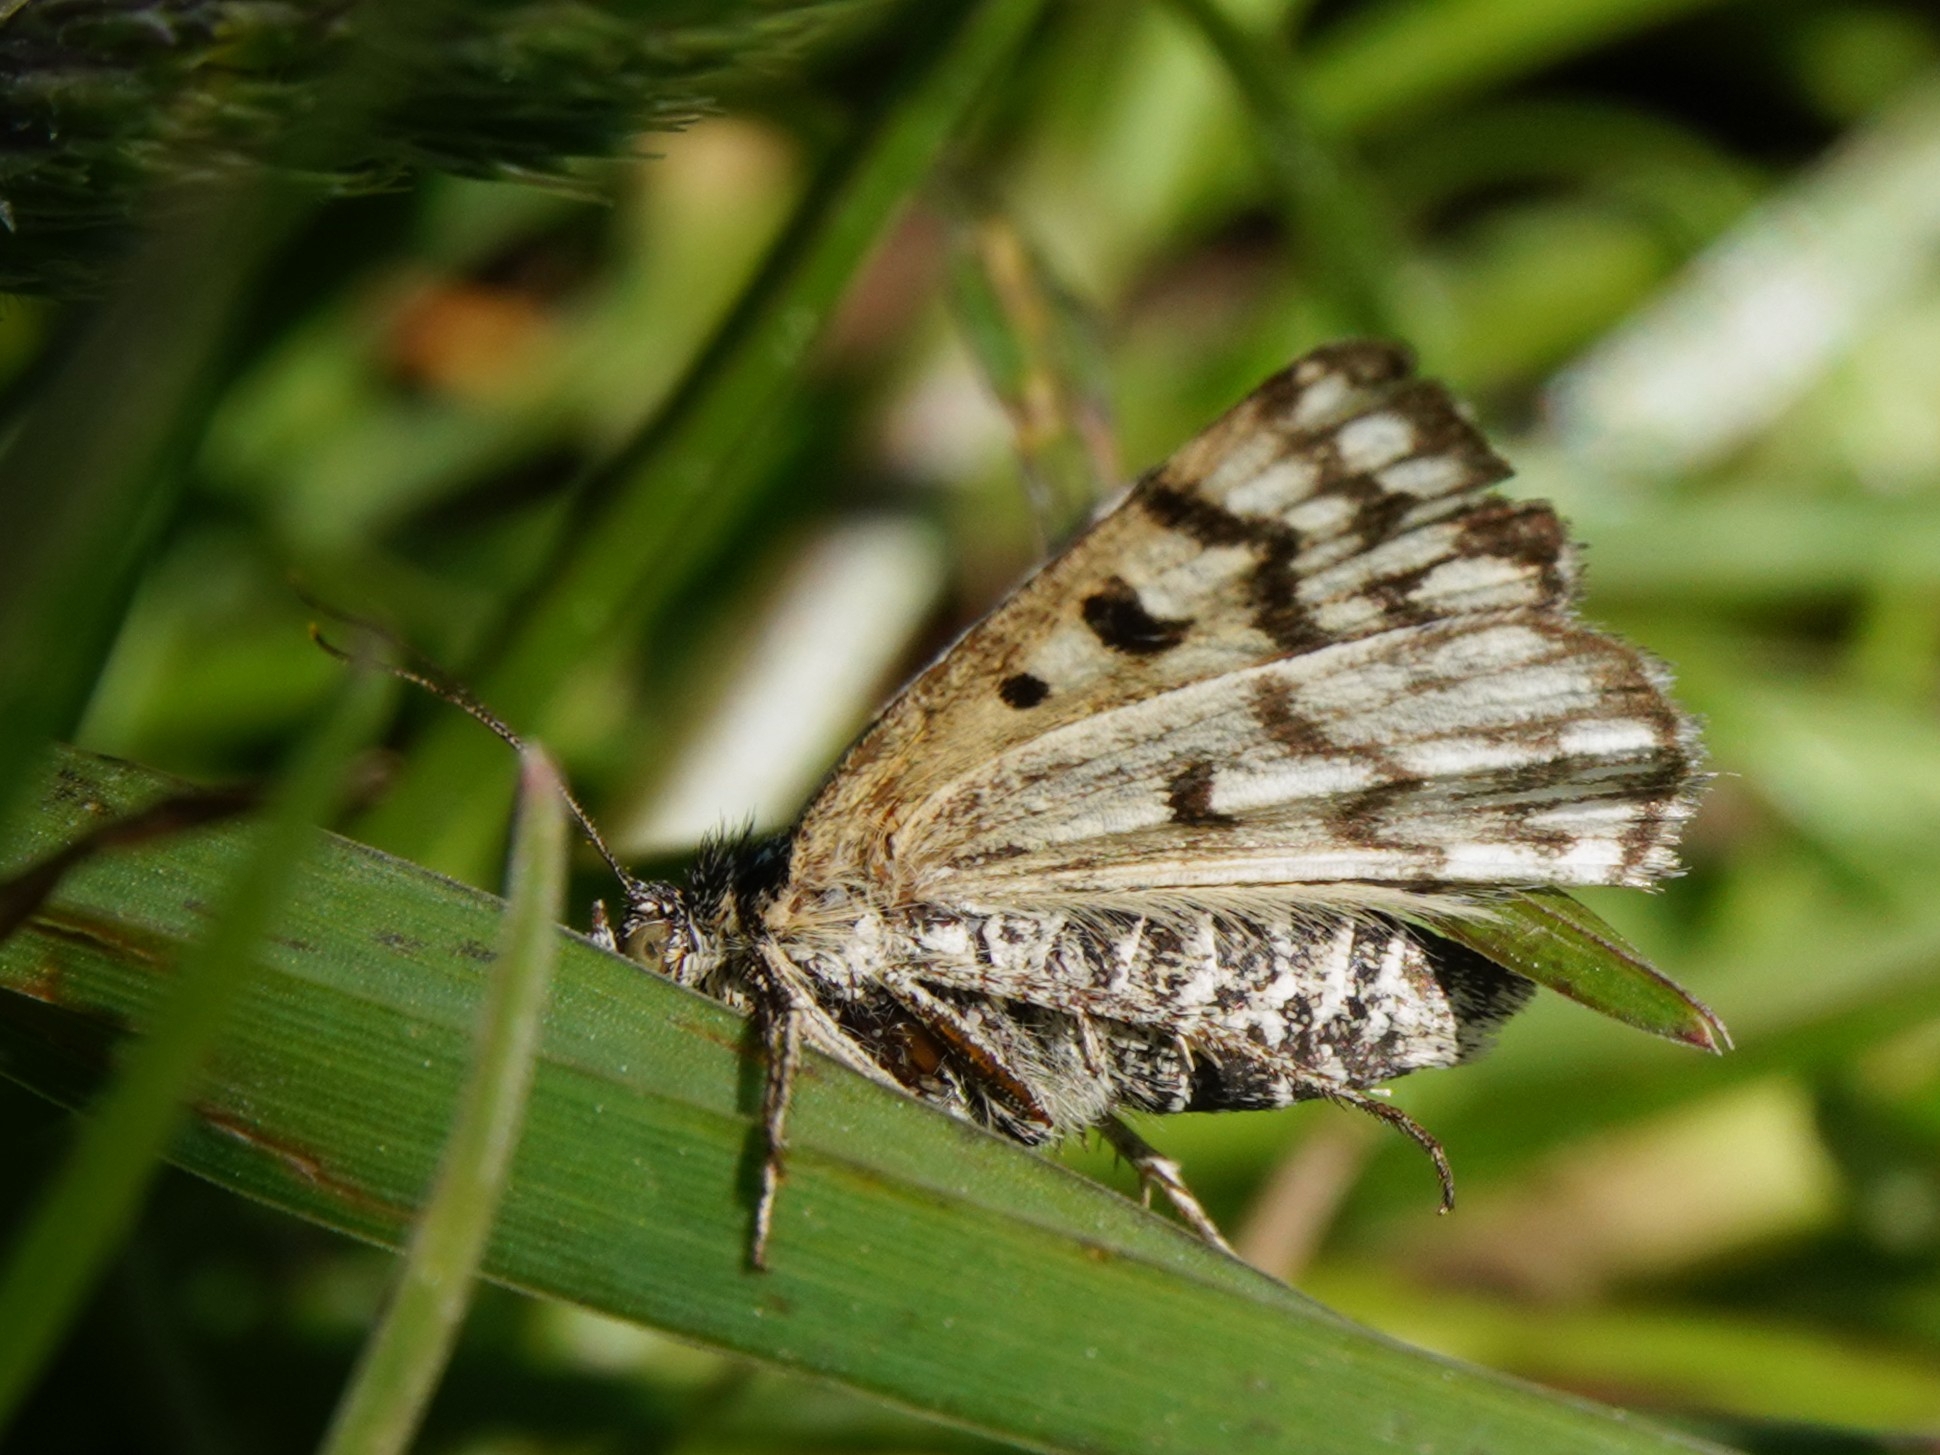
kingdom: Animalia
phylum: Arthropoda
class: Insecta
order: Lepidoptera
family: Erebidae
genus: Callistege
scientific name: Callistege mi
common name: Mother shipton
